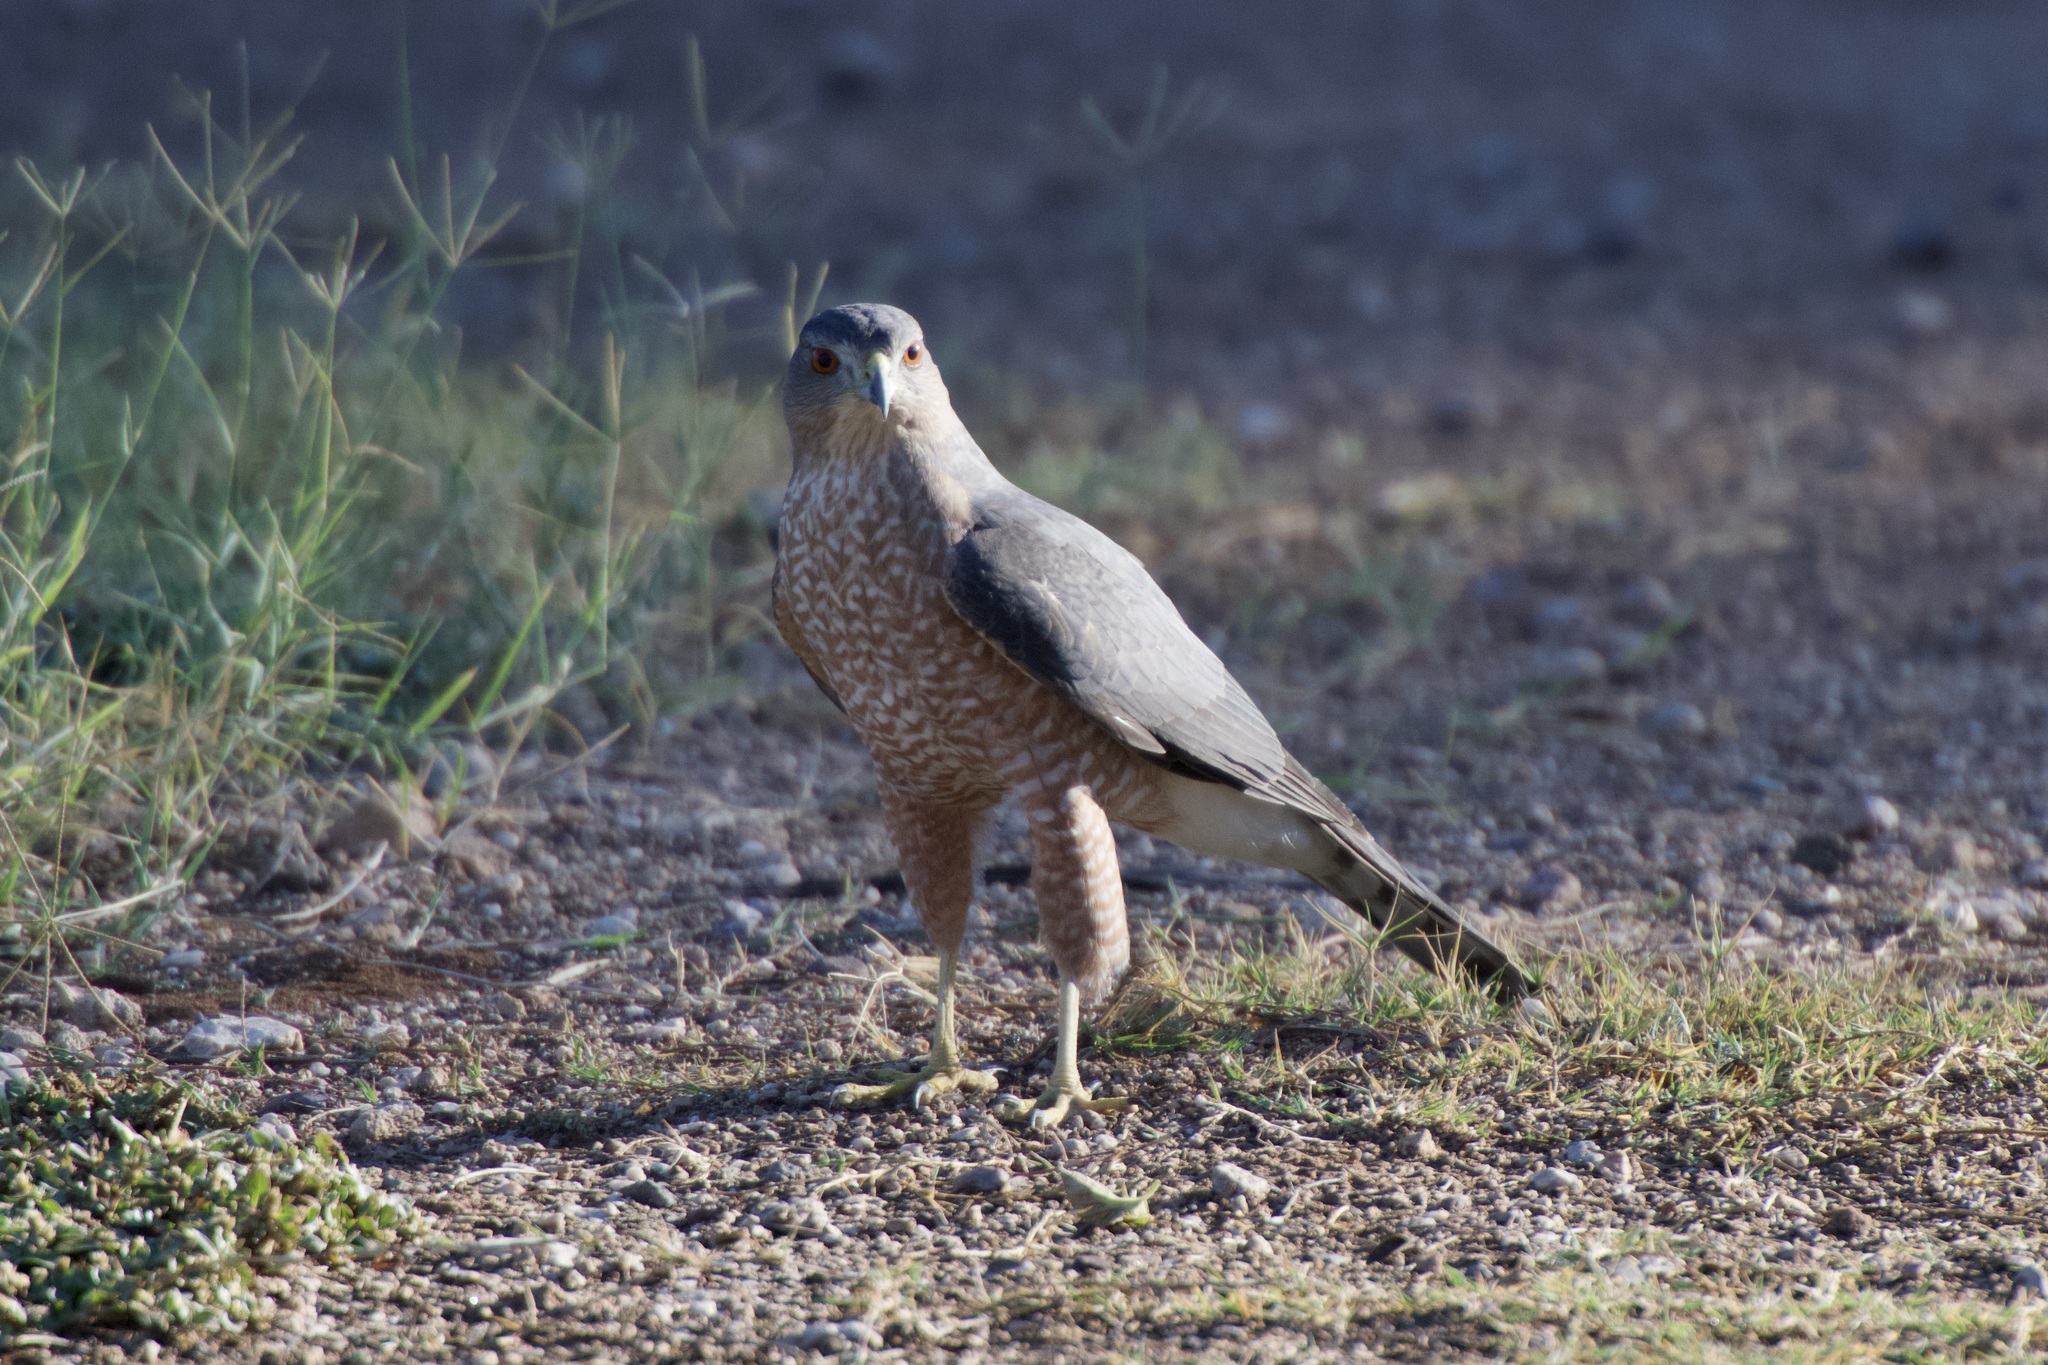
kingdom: Animalia
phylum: Chordata
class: Aves
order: Accipitriformes
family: Accipitridae
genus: Accipiter
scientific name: Accipiter cooperii
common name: Cooper's hawk
